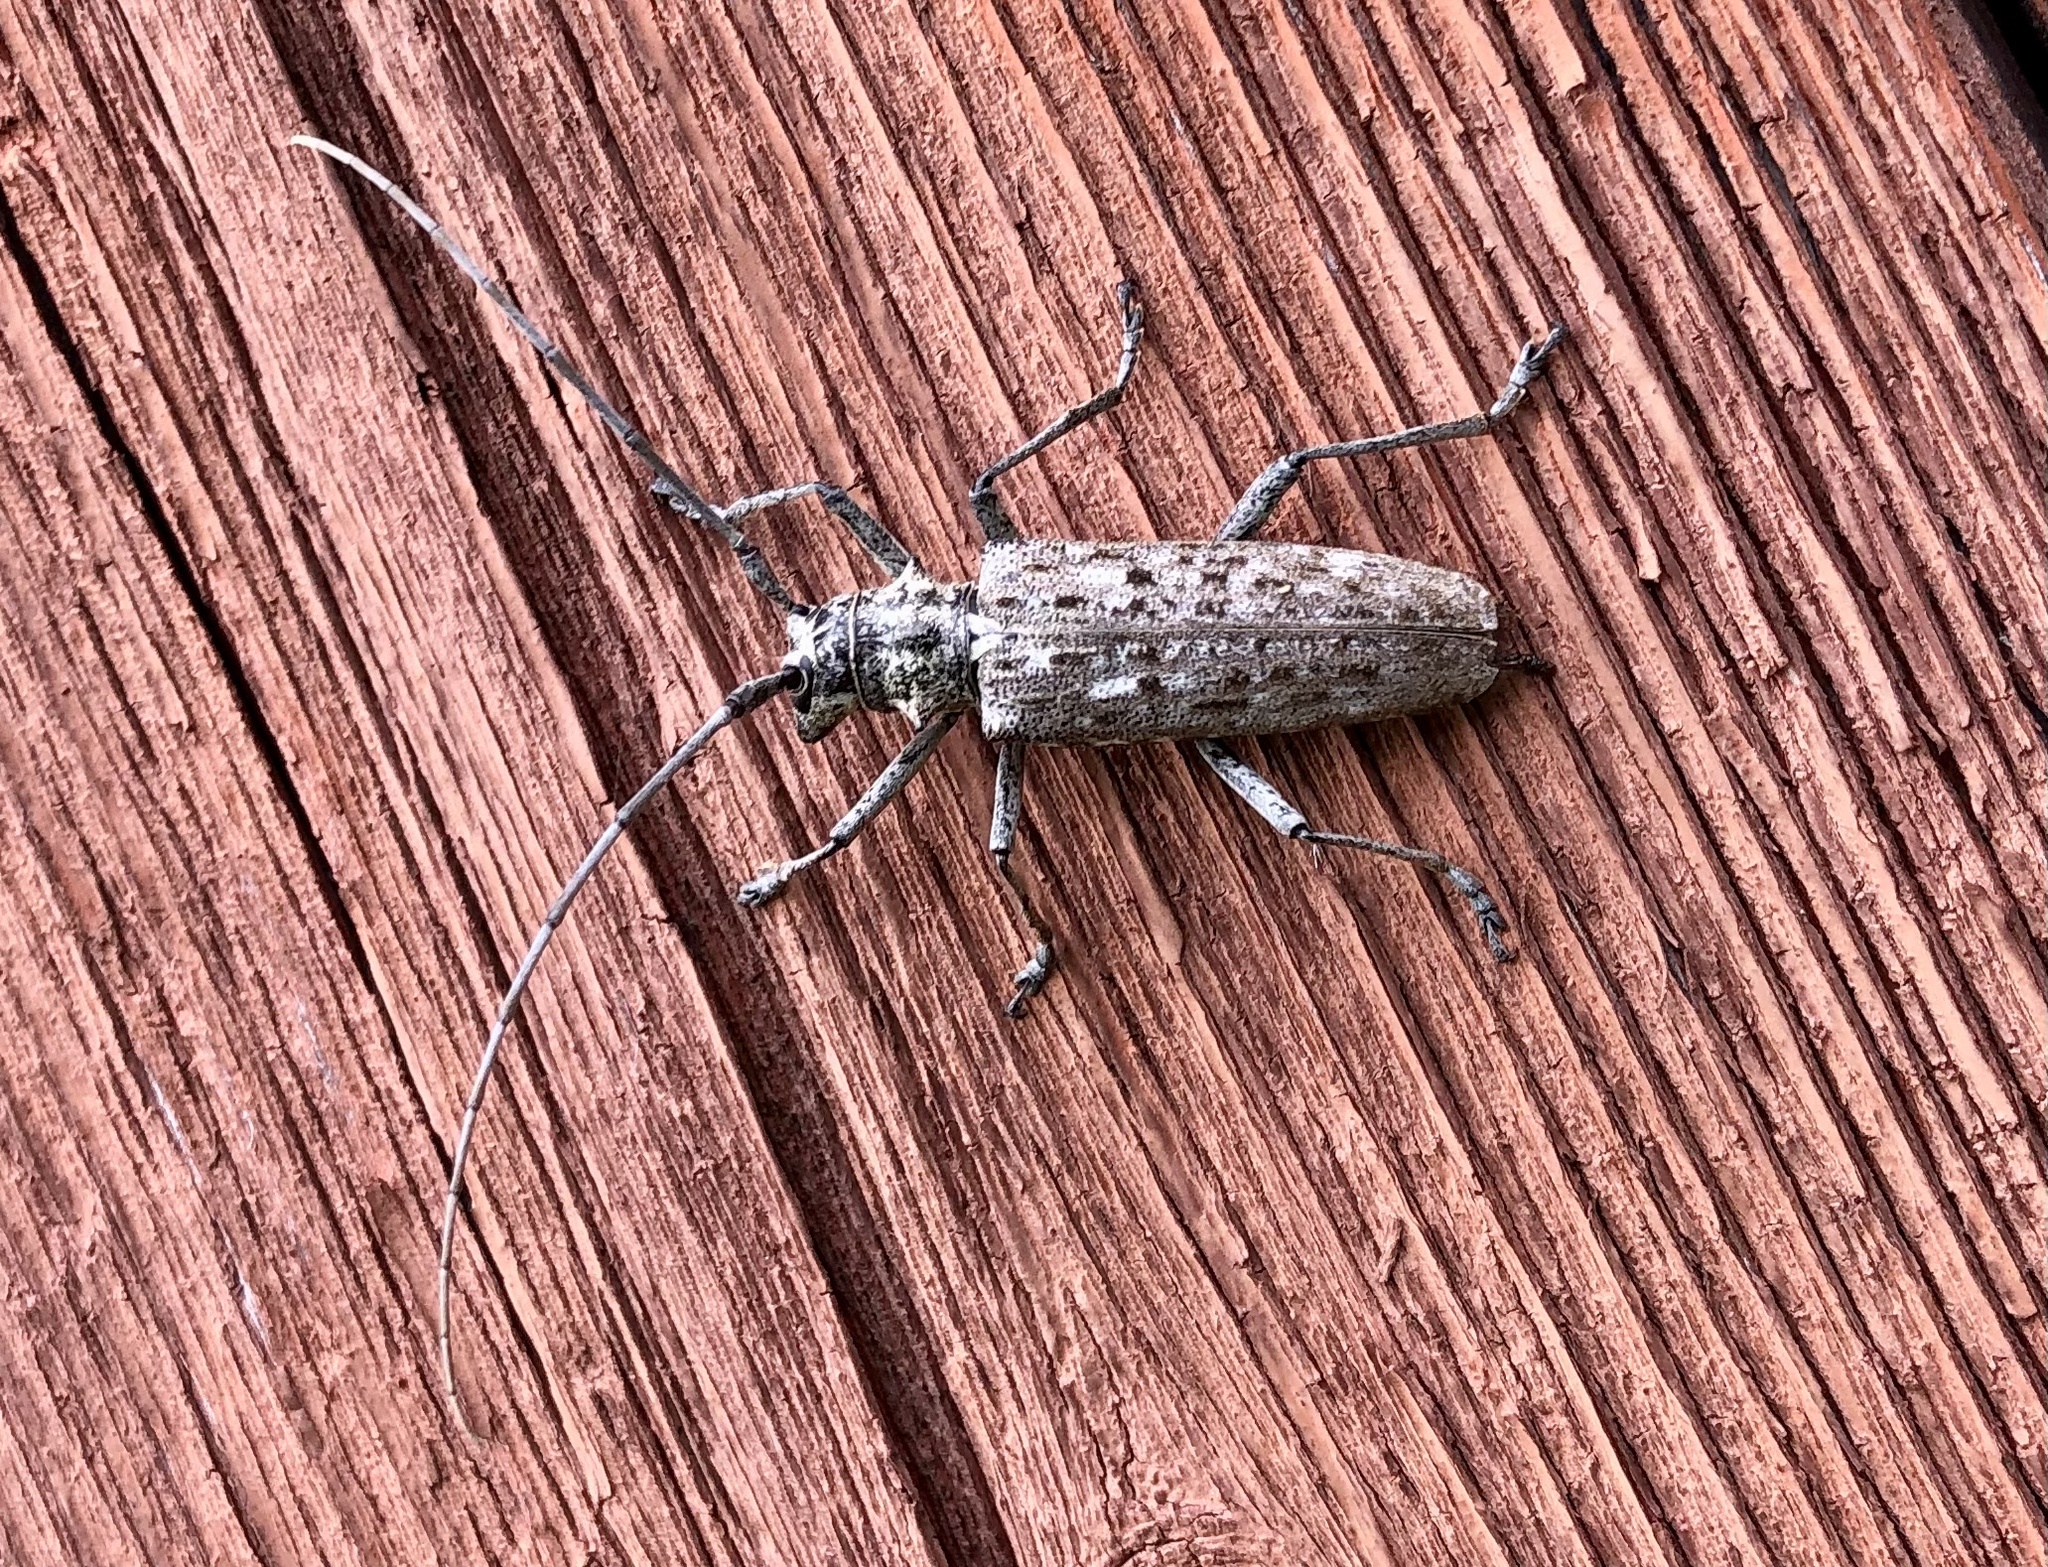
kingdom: Animalia
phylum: Arthropoda
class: Insecta
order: Coleoptera
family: Cerambycidae
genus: Monochamus
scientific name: Monochamus notatus
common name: Northeastern pine sawyer beetle
